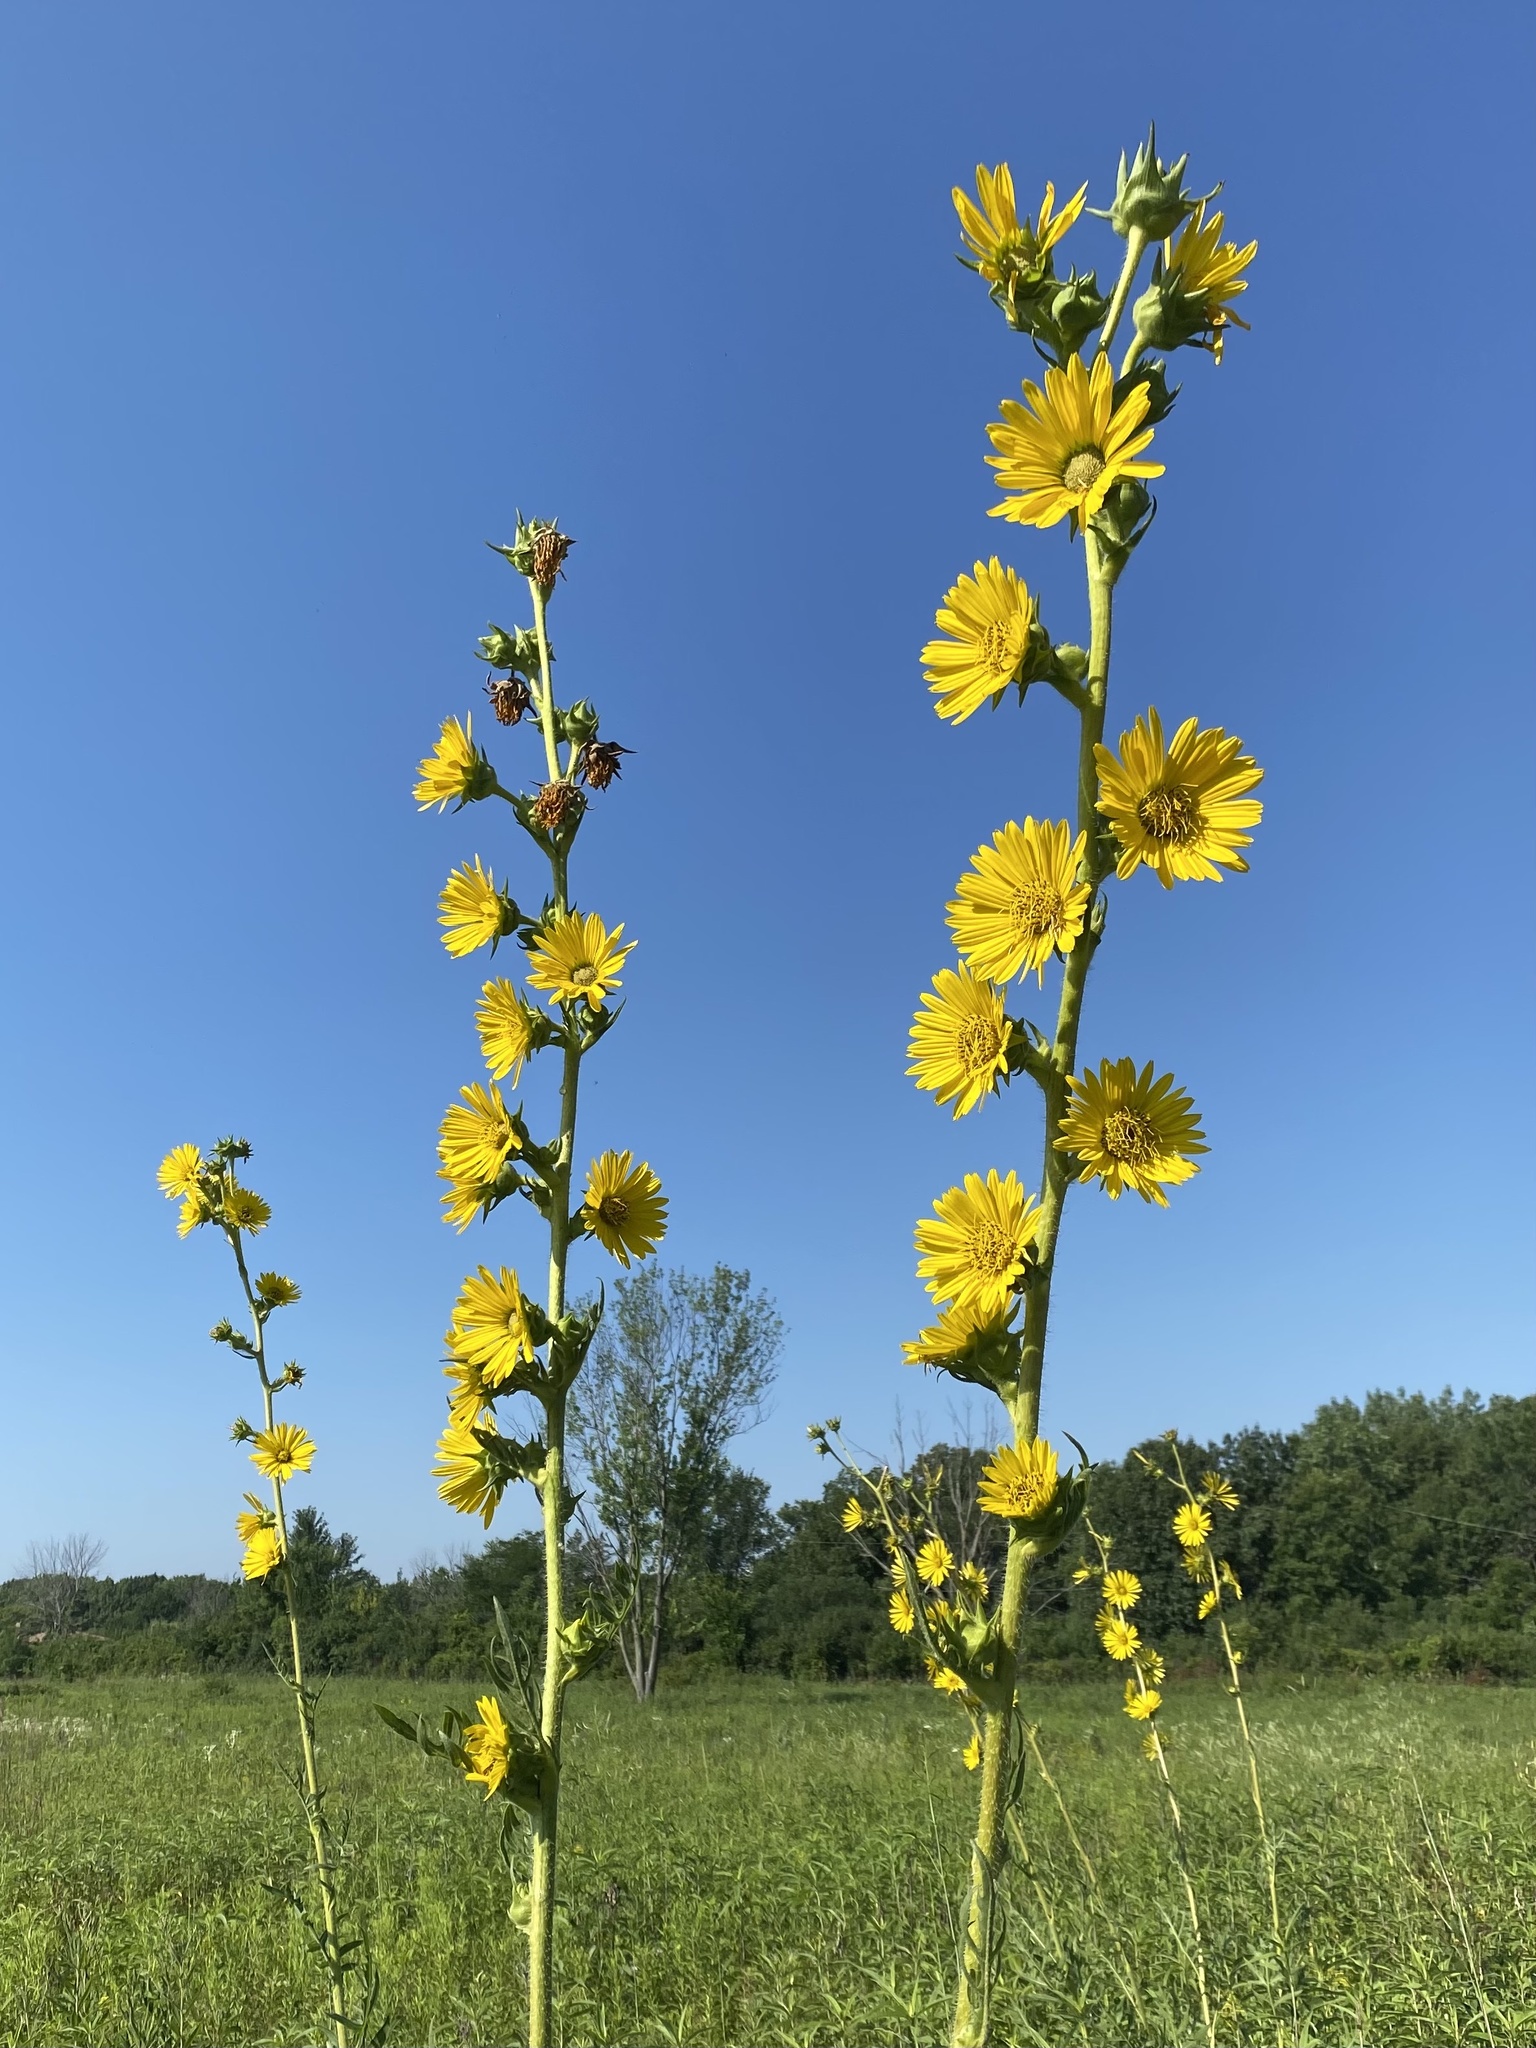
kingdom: Plantae
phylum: Tracheophyta
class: Magnoliopsida
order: Asterales
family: Asteraceae
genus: Silphium
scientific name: Silphium laciniatum
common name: Polarplant
